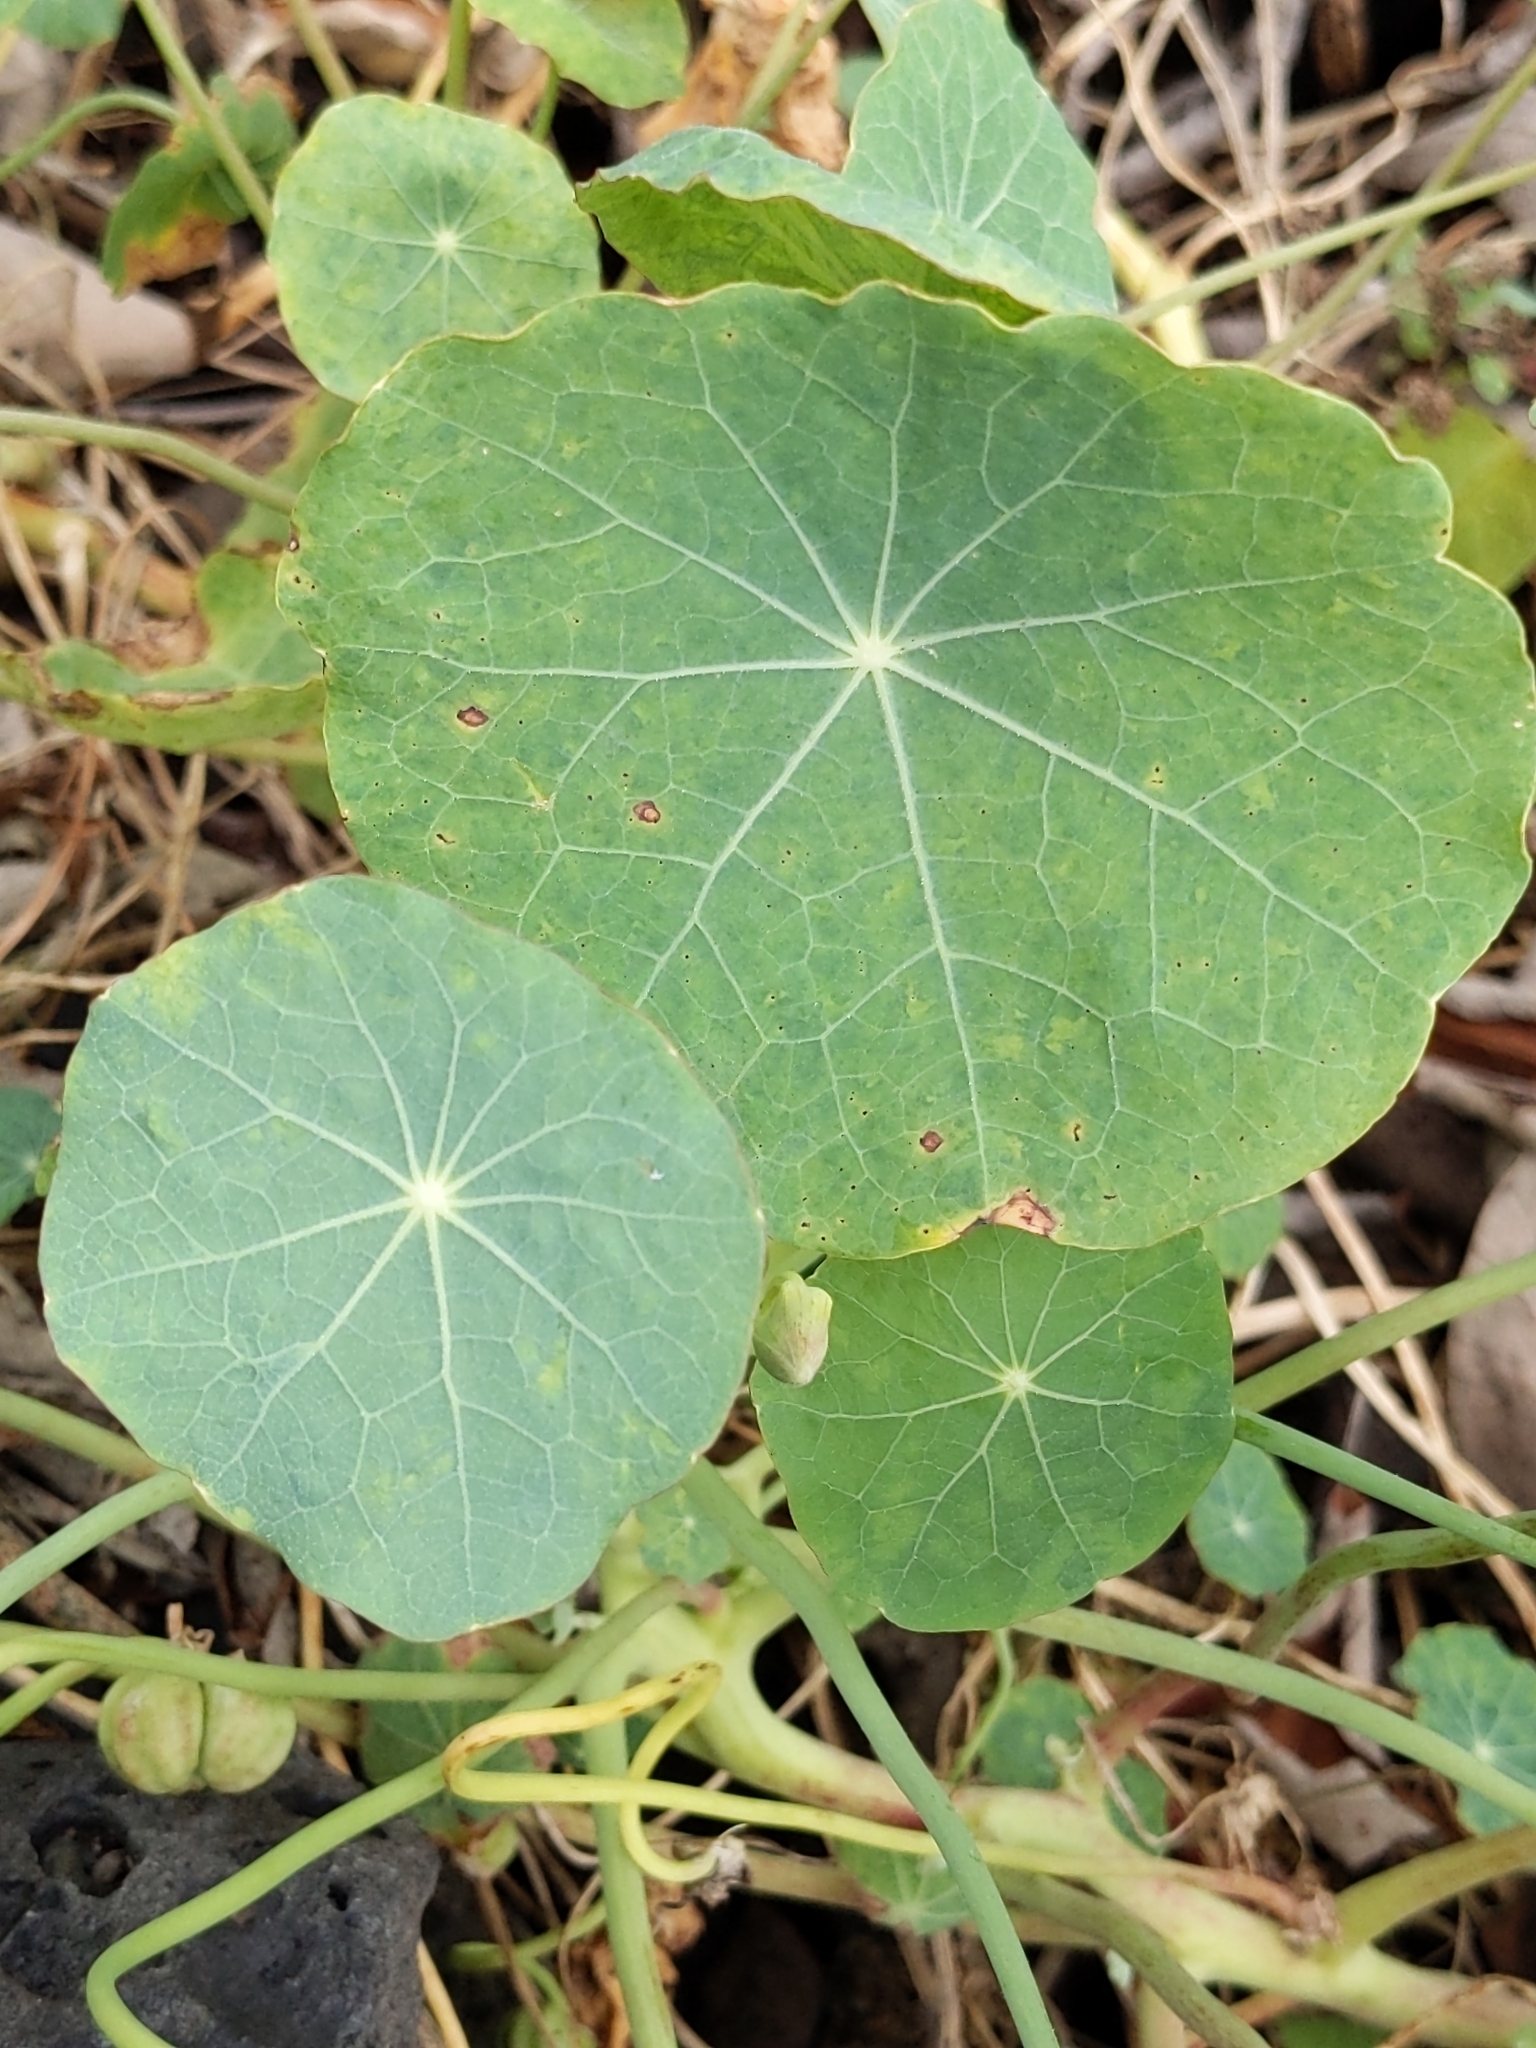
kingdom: Plantae
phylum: Tracheophyta
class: Magnoliopsida
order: Brassicales
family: Tropaeolaceae
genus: Tropaeolum
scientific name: Tropaeolum majus
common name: Nasturtium
